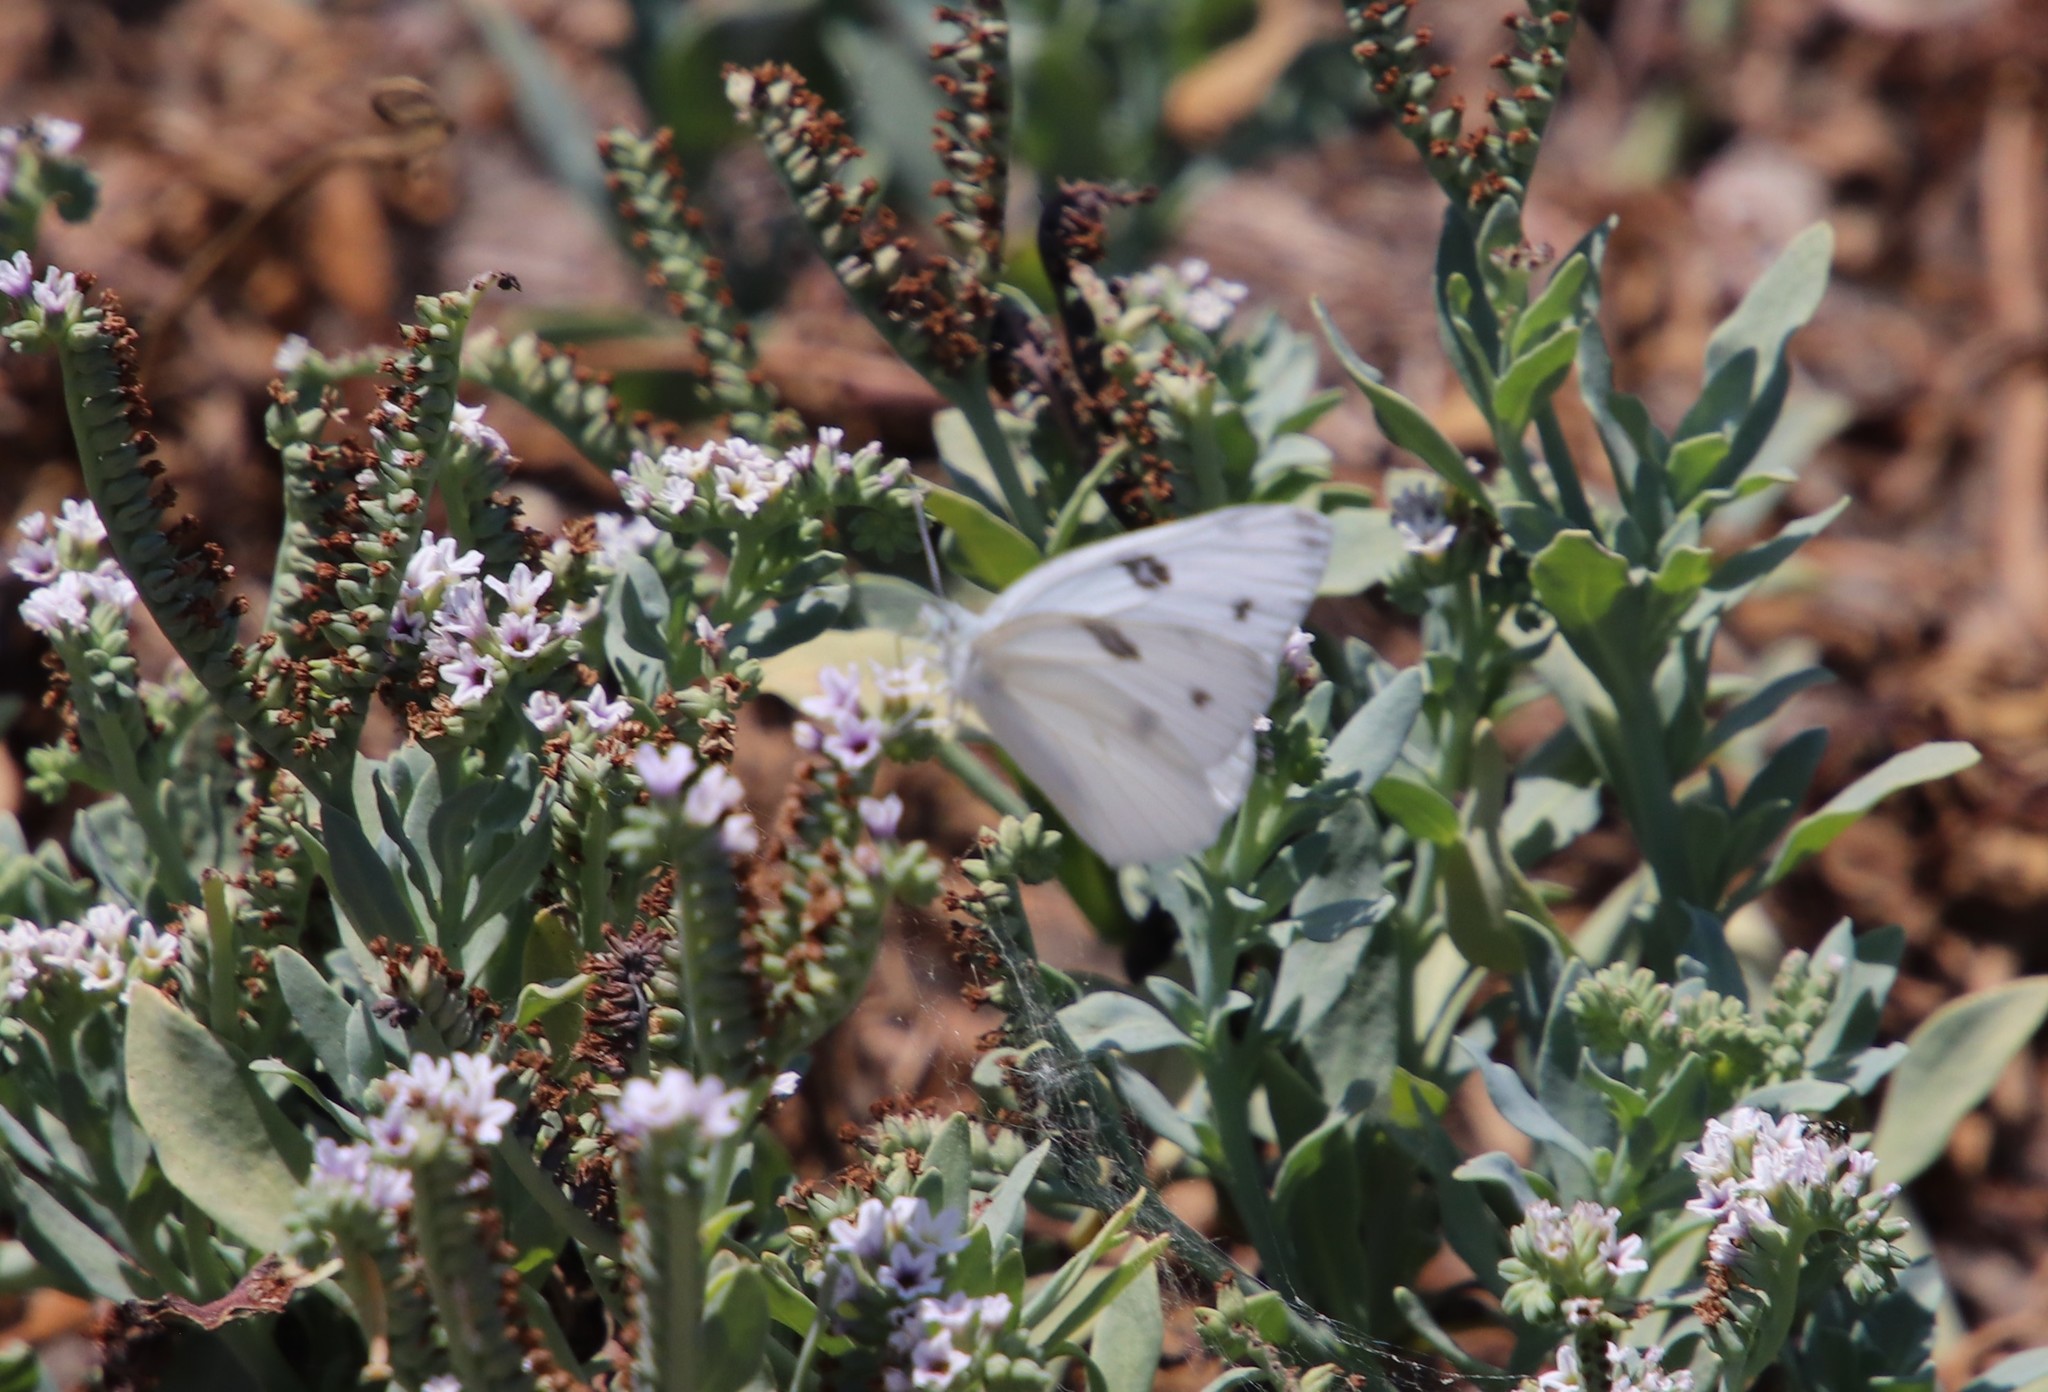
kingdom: Animalia
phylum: Arthropoda
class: Insecta
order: Lepidoptera
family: Pieridae
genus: Pontia
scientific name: Pontia protodice
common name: Checkered white
